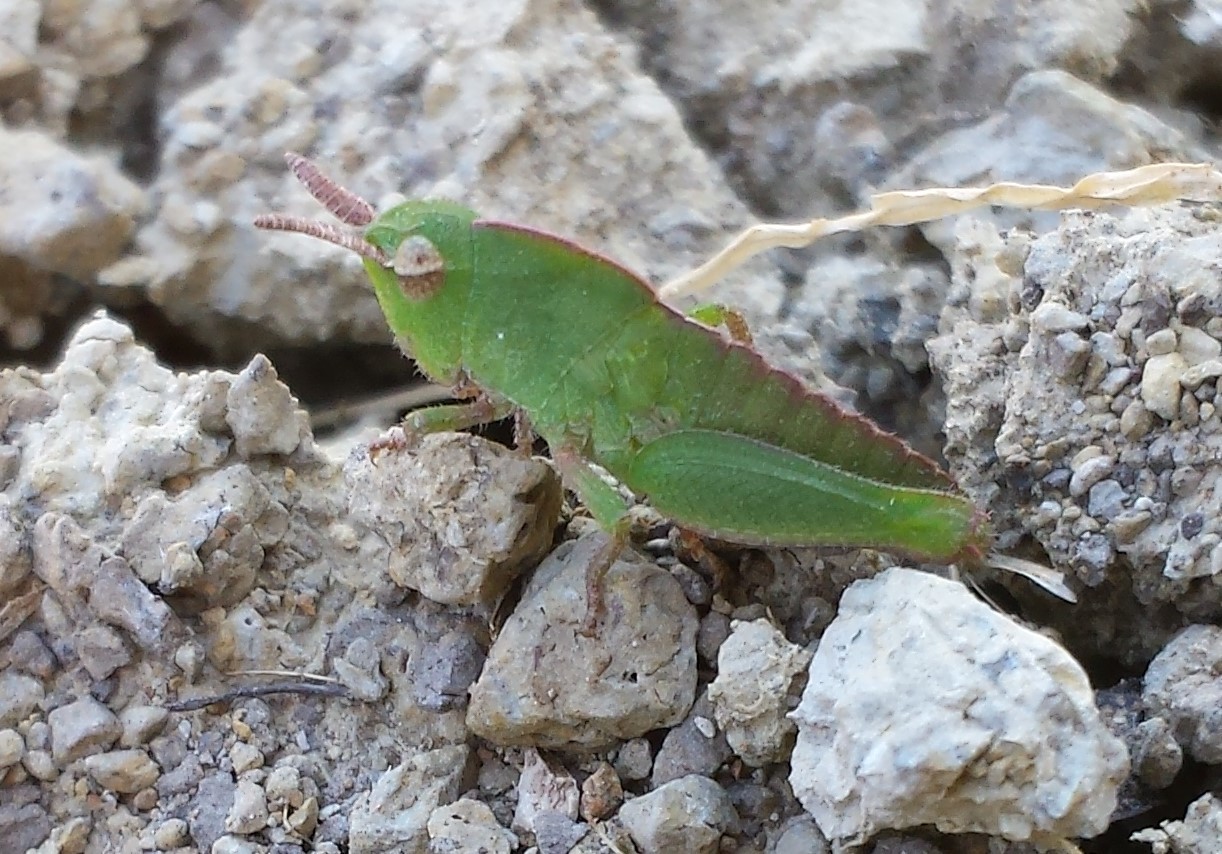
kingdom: Animalia
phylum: Arthropoda
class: Insecta
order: Orthoptera
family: Acrididae
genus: Chortophaga
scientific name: Chortophaga viridifasciata
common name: Green-striped grasshopper
